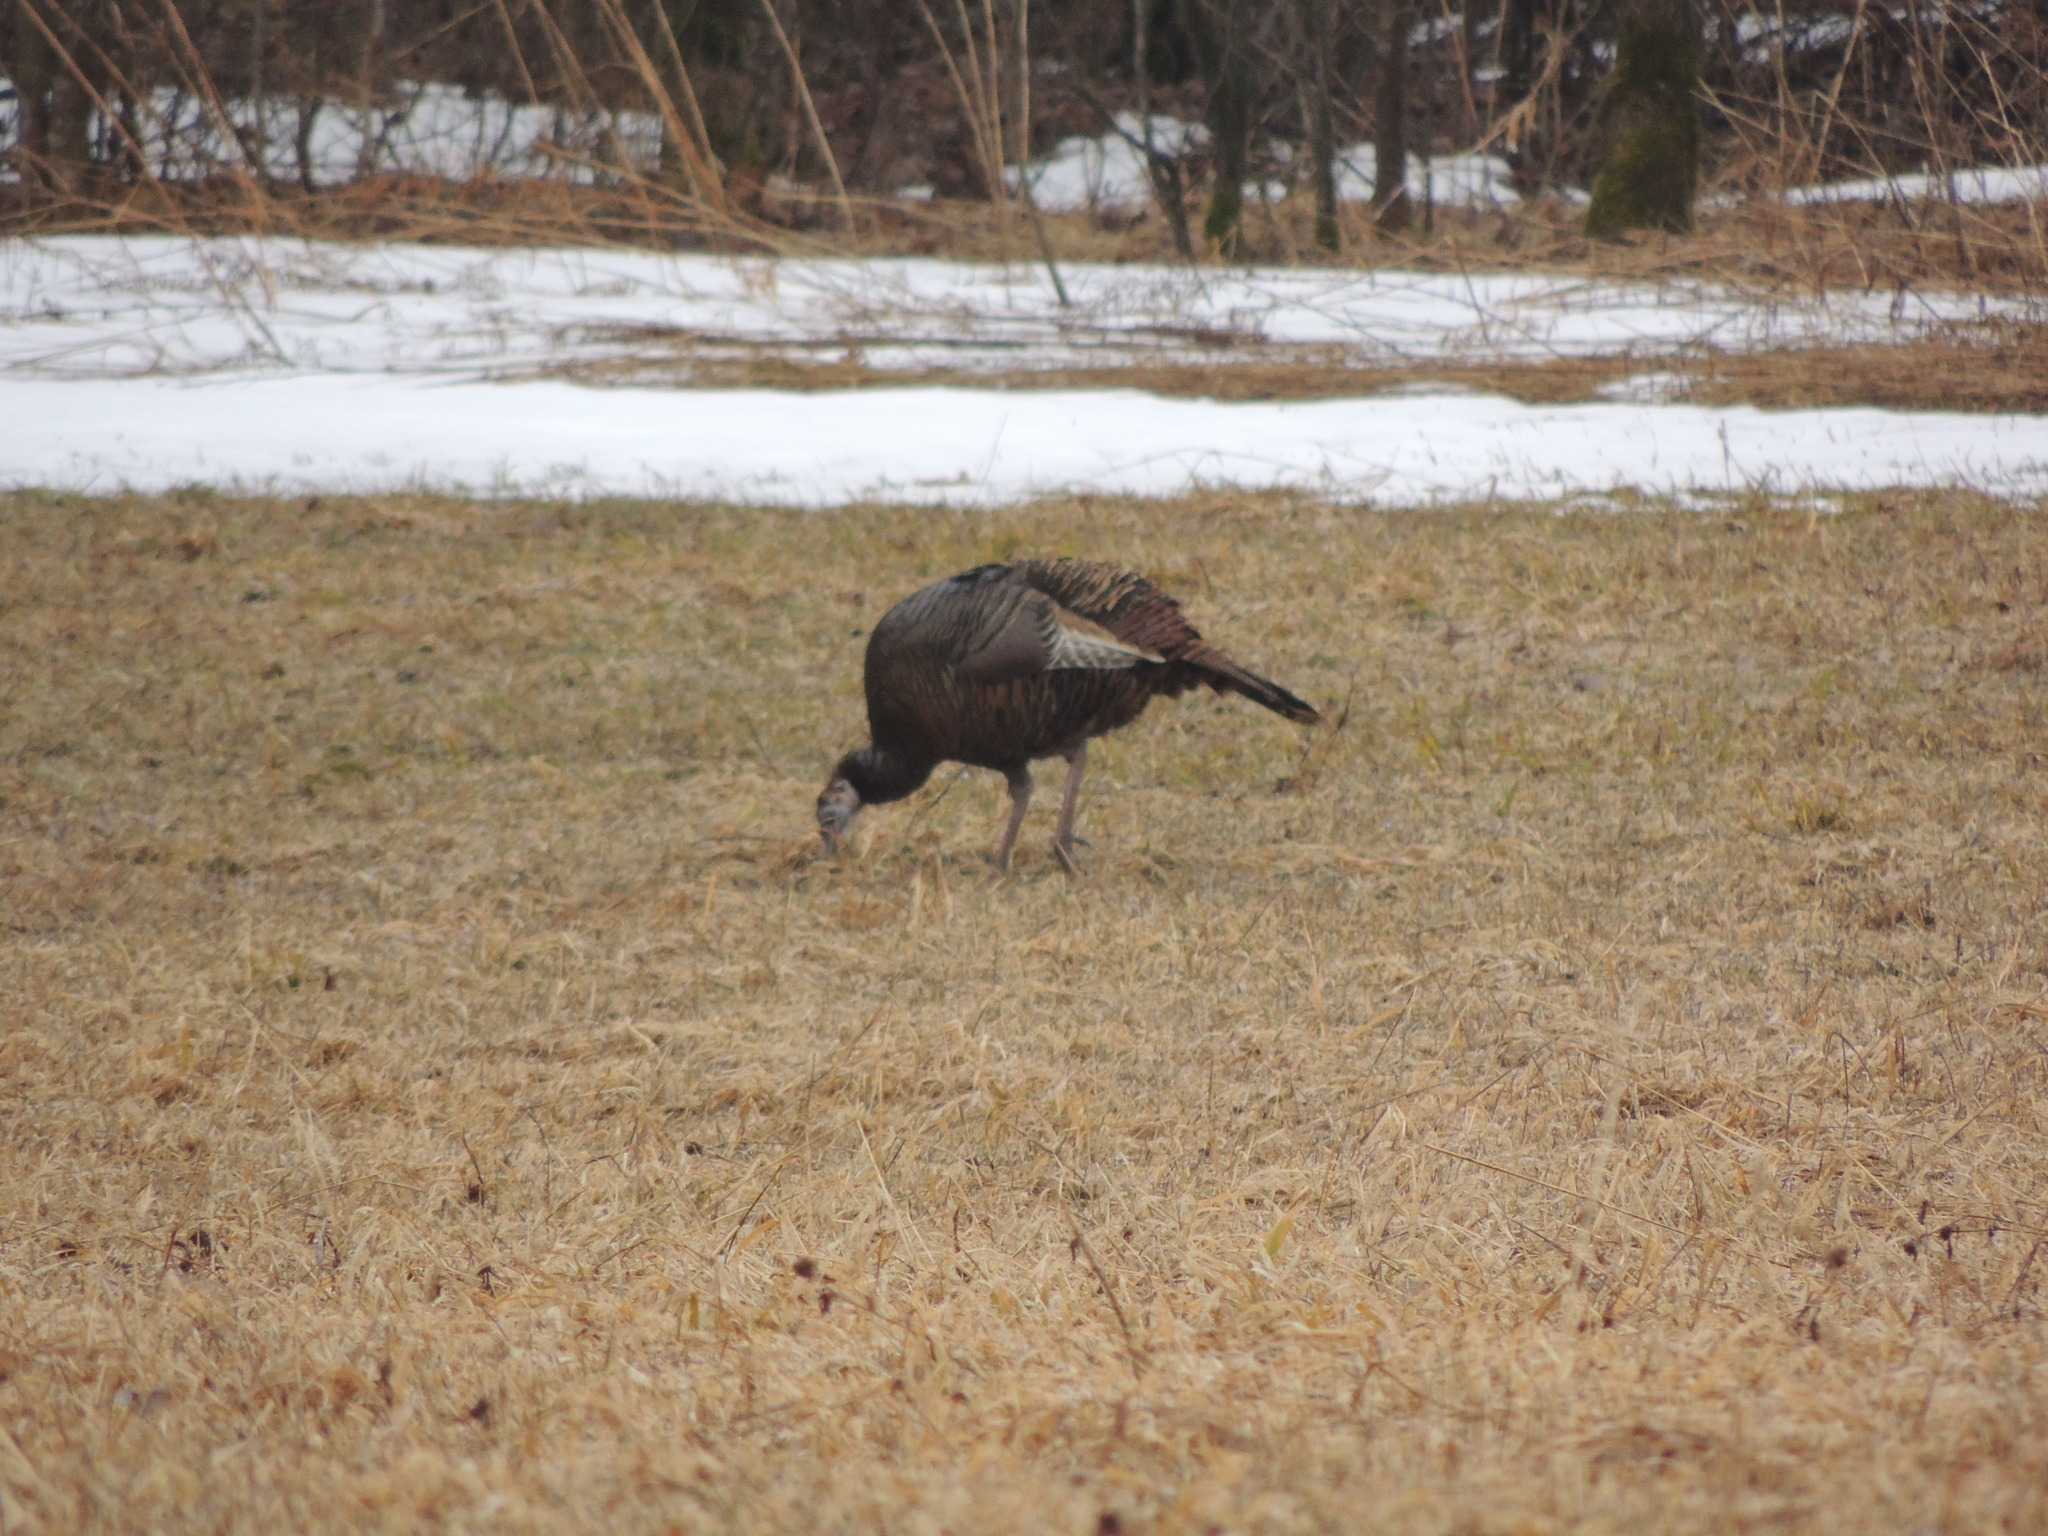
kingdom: Animalia
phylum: Chordata
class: Aves
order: Galliformes
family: Phasianidae
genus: Meleagris
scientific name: Meleagris gallopavo
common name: Wild turkey
